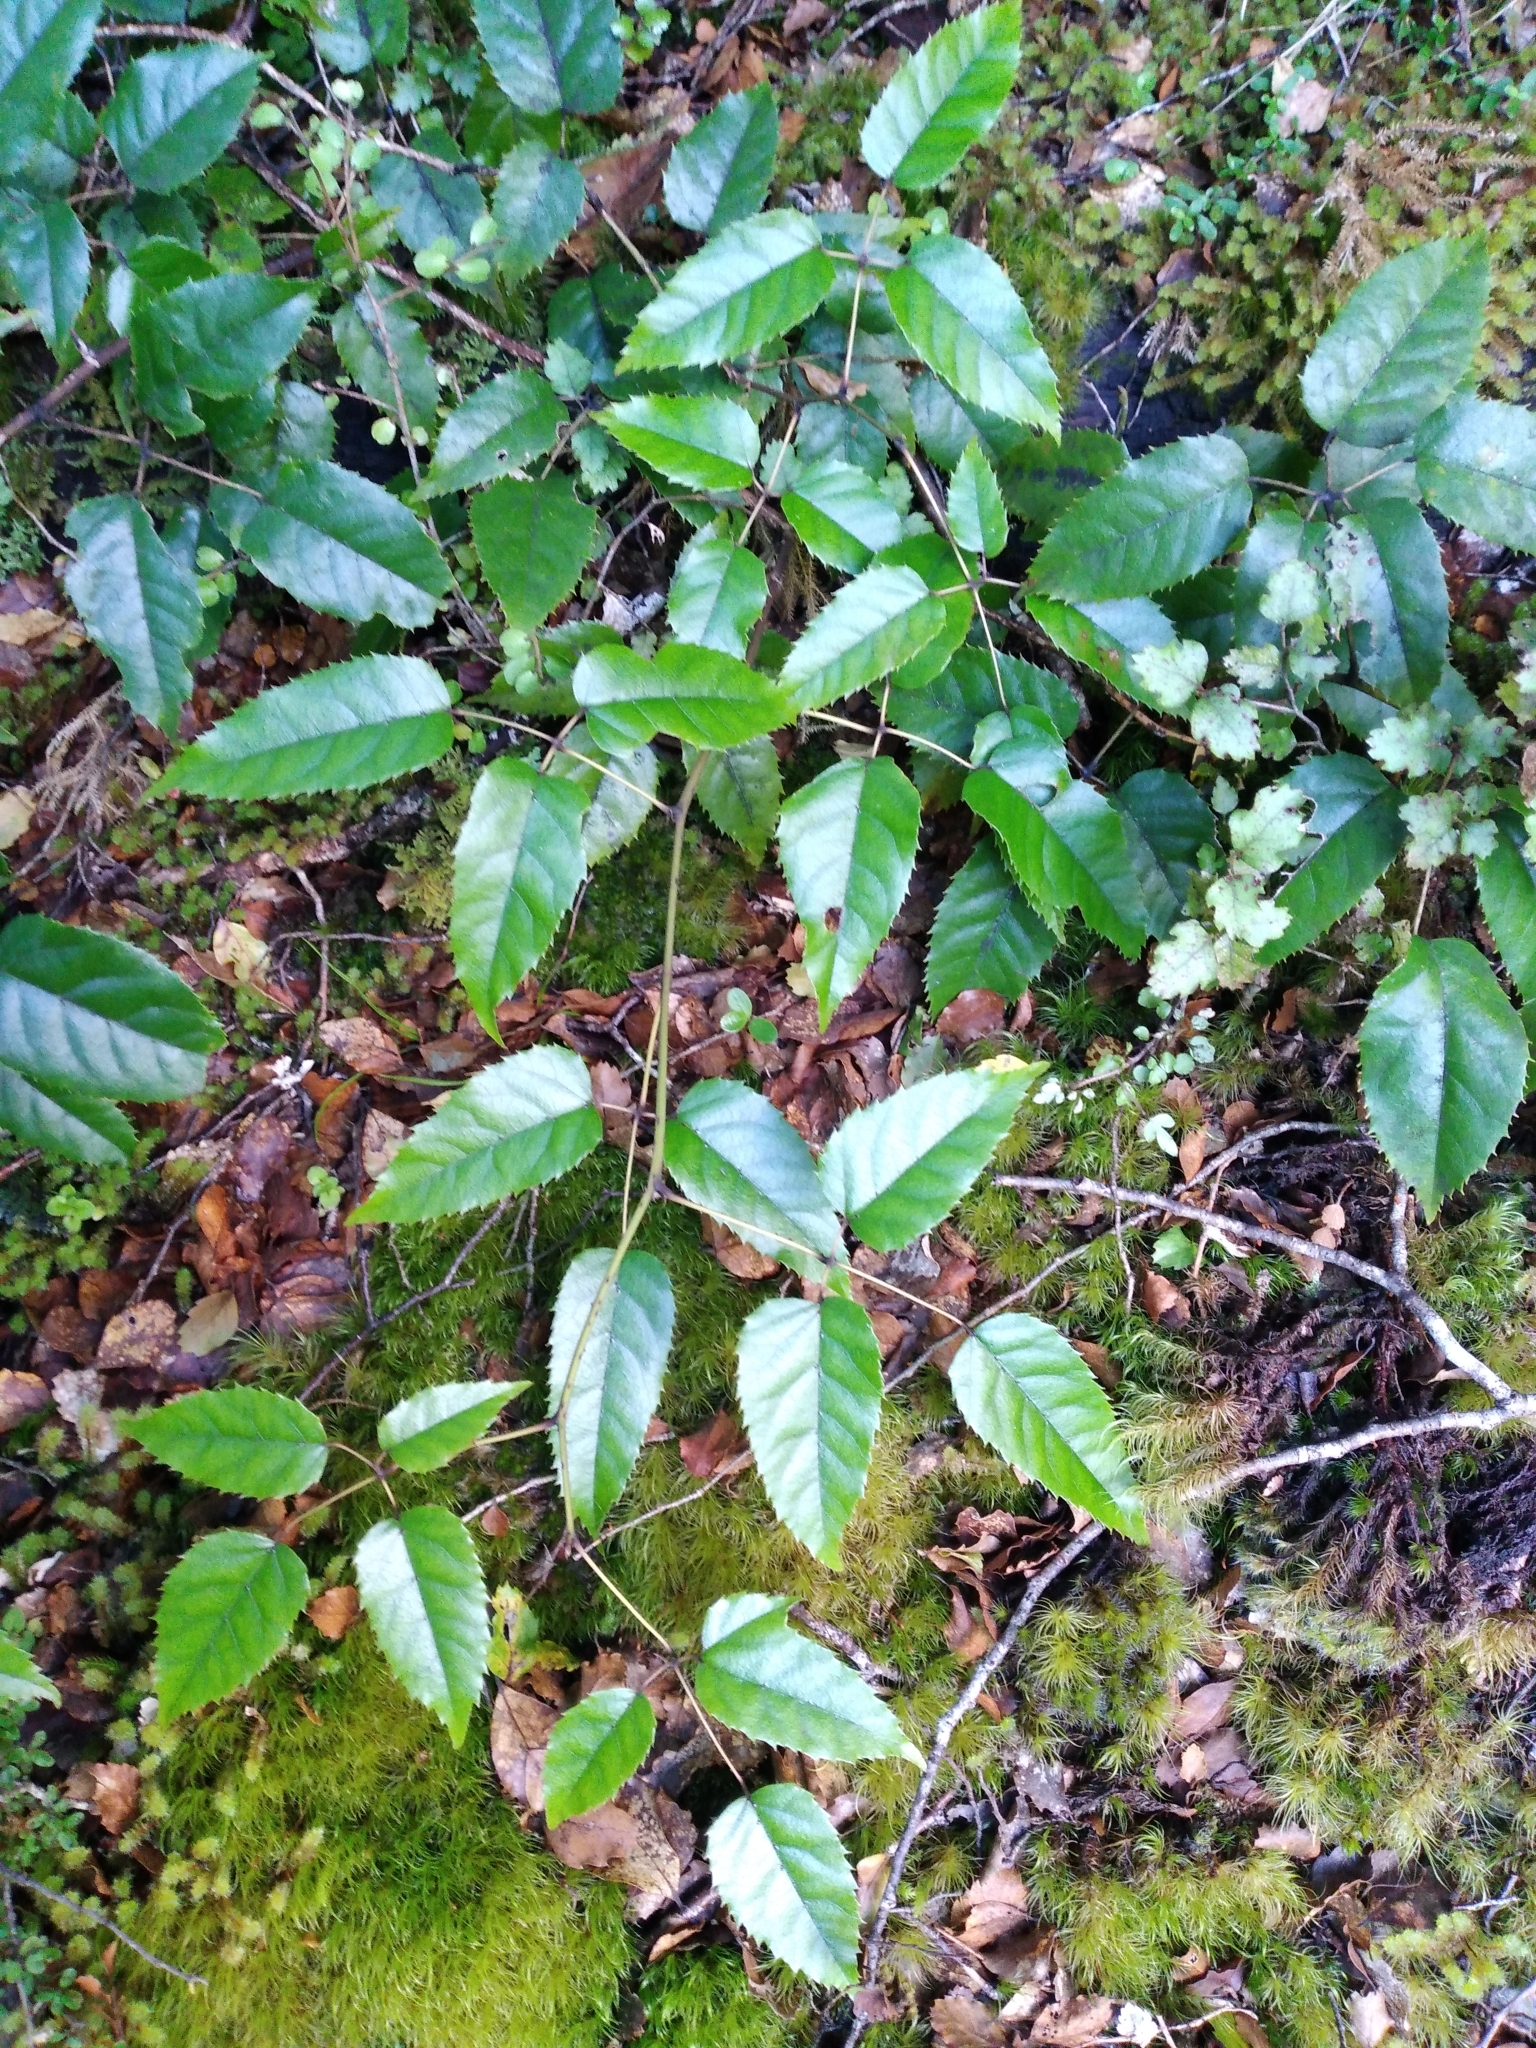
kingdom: Plantae
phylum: Tracheophyta
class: Magnoliopsida
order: Rosales
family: Rosaceae
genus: Rubus
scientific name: Rubus cissoides
